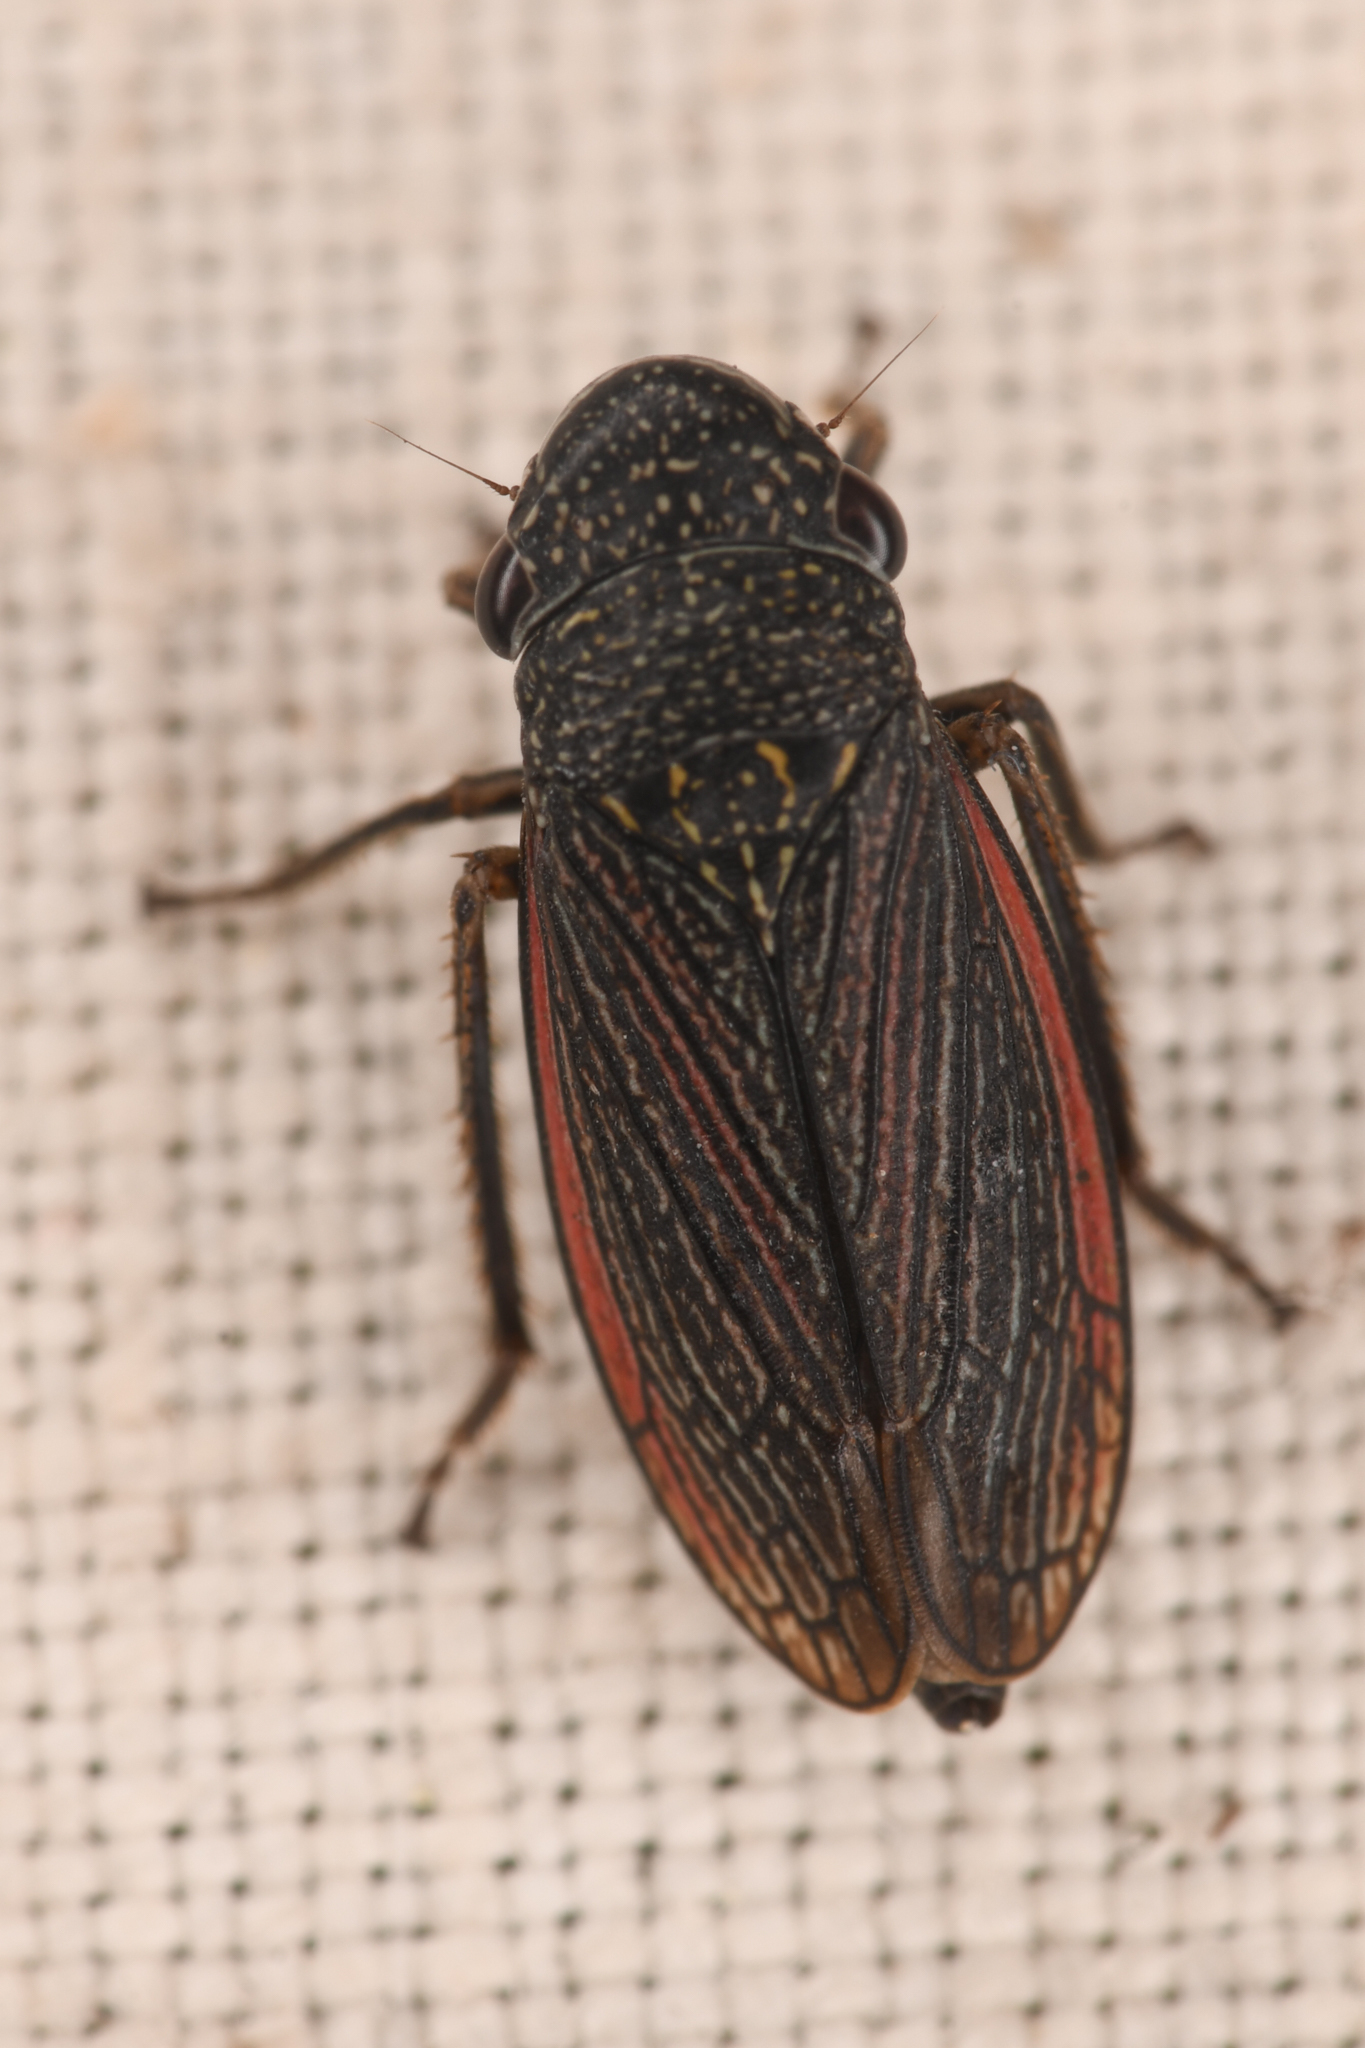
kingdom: Animalia
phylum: Arthropoda
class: Insecta
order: Hemiptera
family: Cicadellidae
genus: Cuerna
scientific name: Cuerna striata
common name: Striped leafhopper
